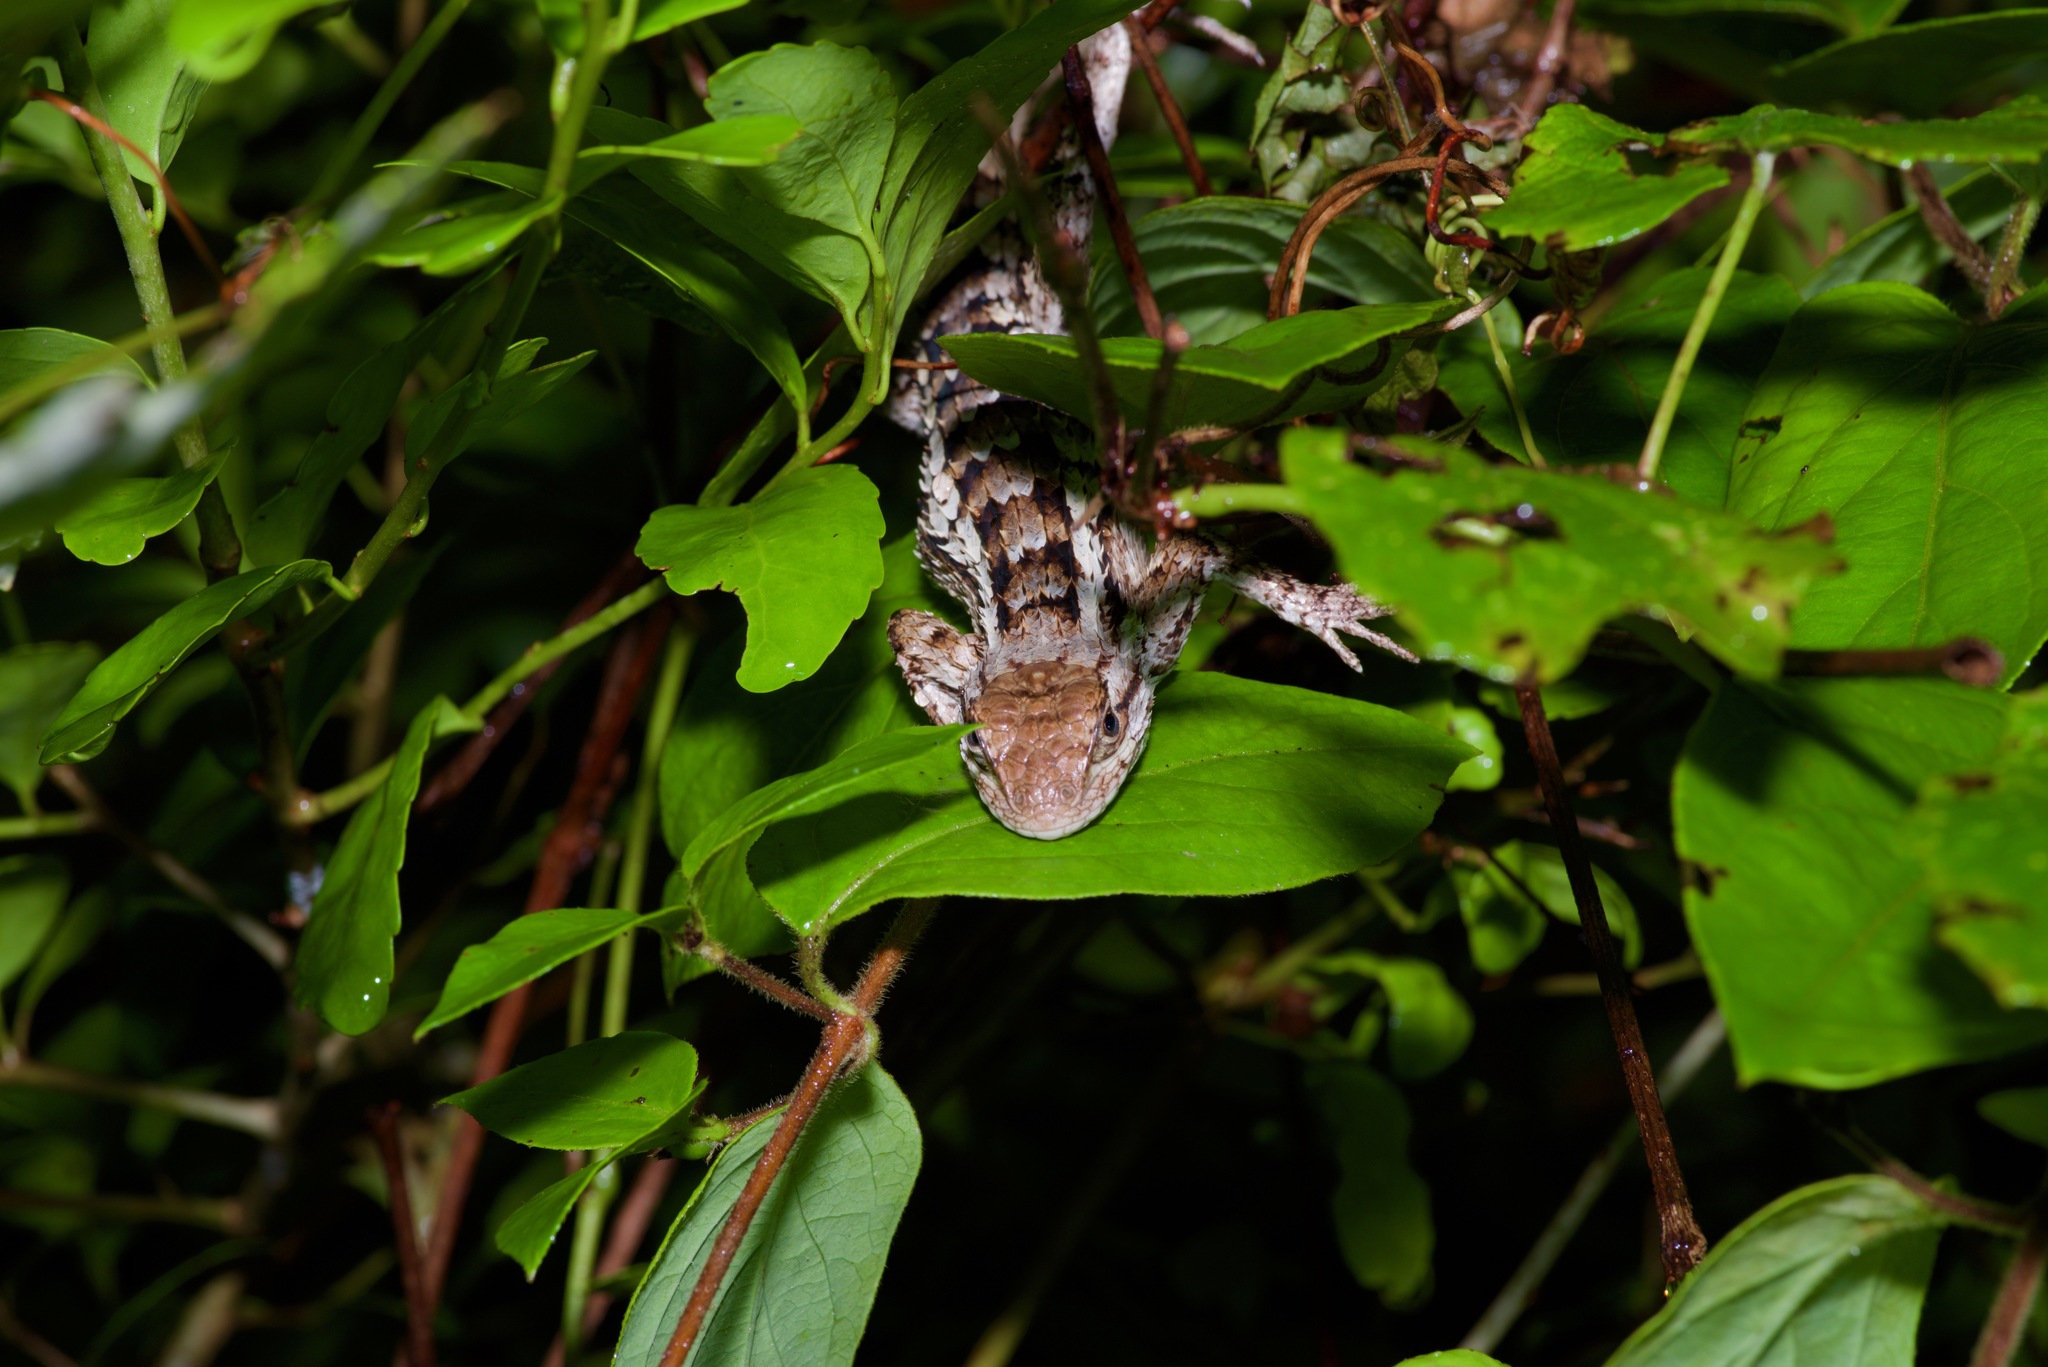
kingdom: Animalia
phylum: Chordata
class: Squamata
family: Phrynosomatidae
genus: Sceloporus
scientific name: Sceloporus olivaceus
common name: Texas spiny lizard
